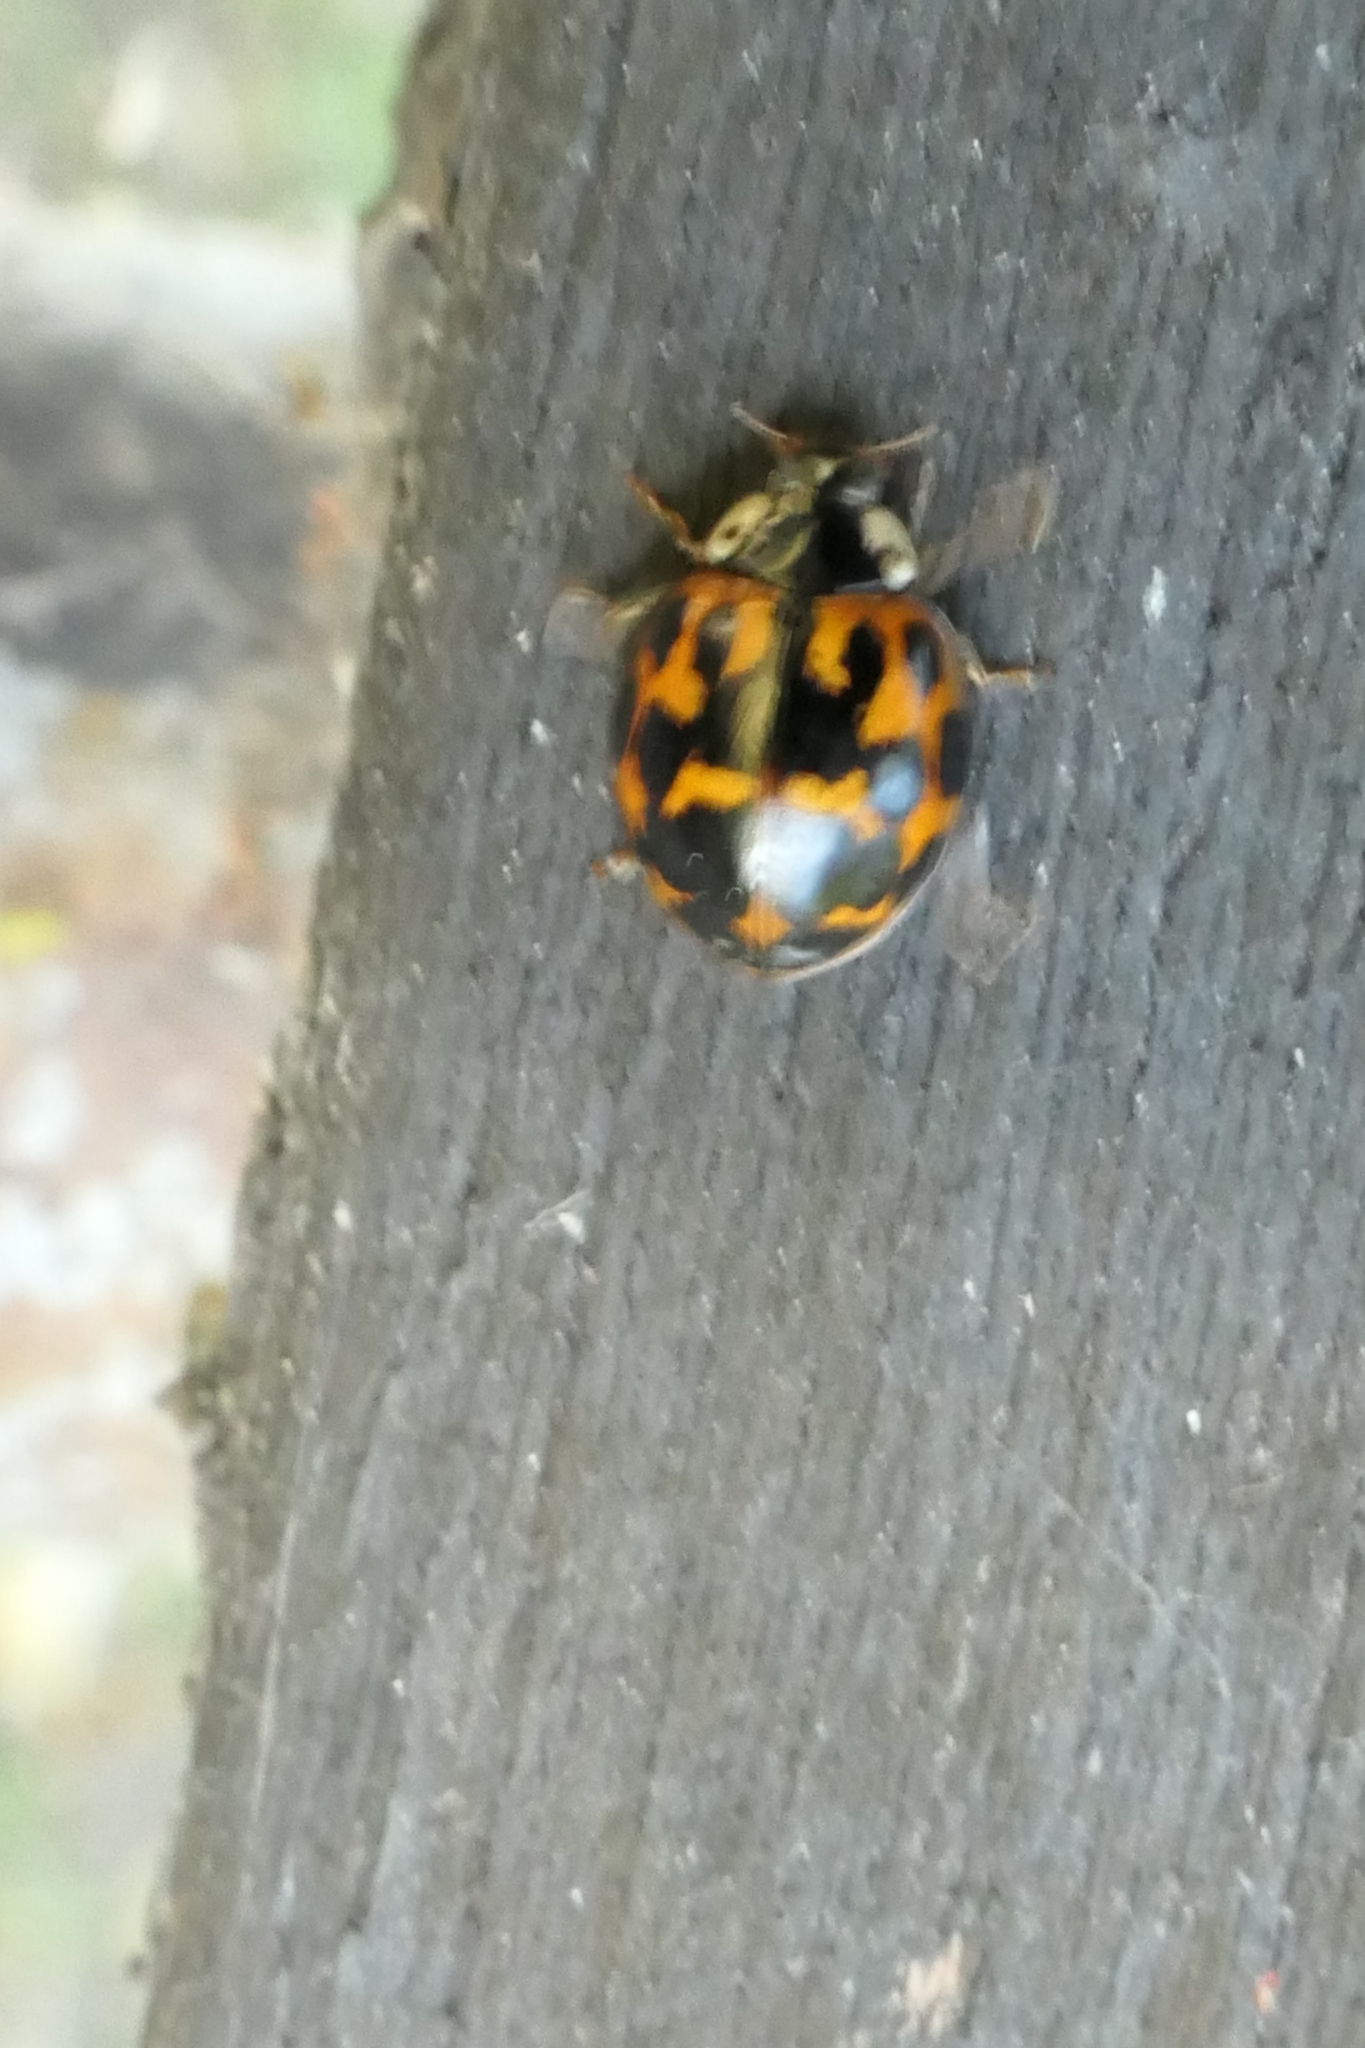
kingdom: Animalia
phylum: Arthropoda
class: Insecta
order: Coleoptera
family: Coccinellidae
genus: Harmonia
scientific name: Harmonia axyridis
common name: Harlequin ladybird
